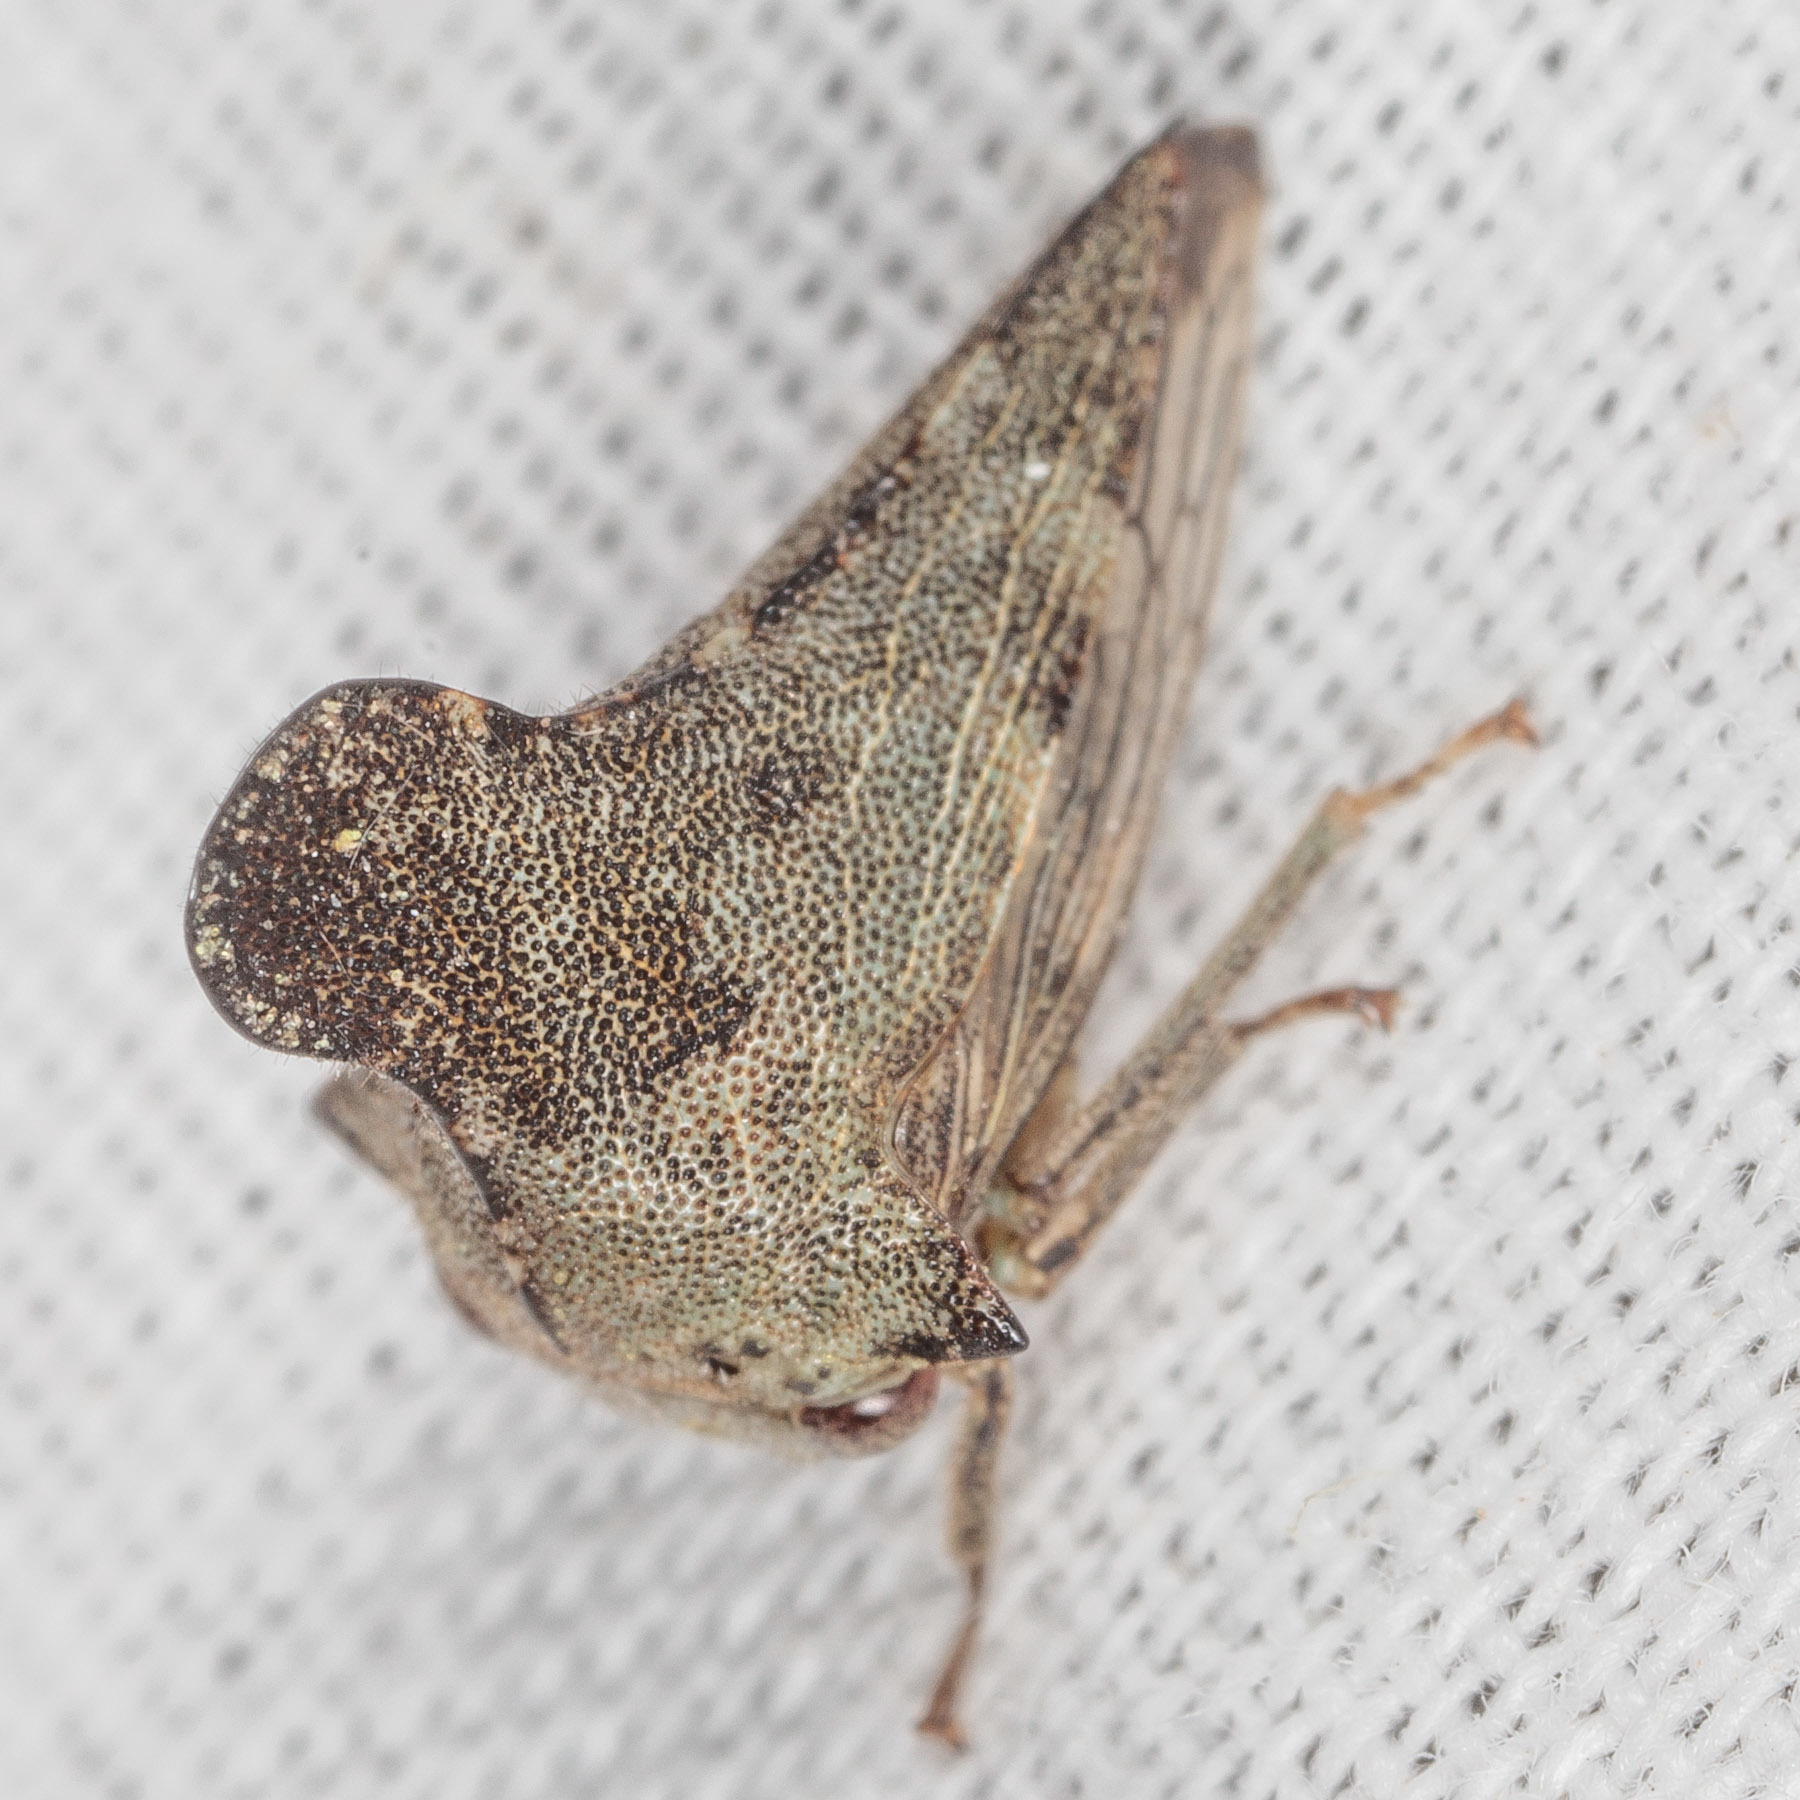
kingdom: Animalia
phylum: Arthropoda
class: Insecta
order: Hemiptera
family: Membracidae
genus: Glossonotus
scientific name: Glossonotus acuminata
